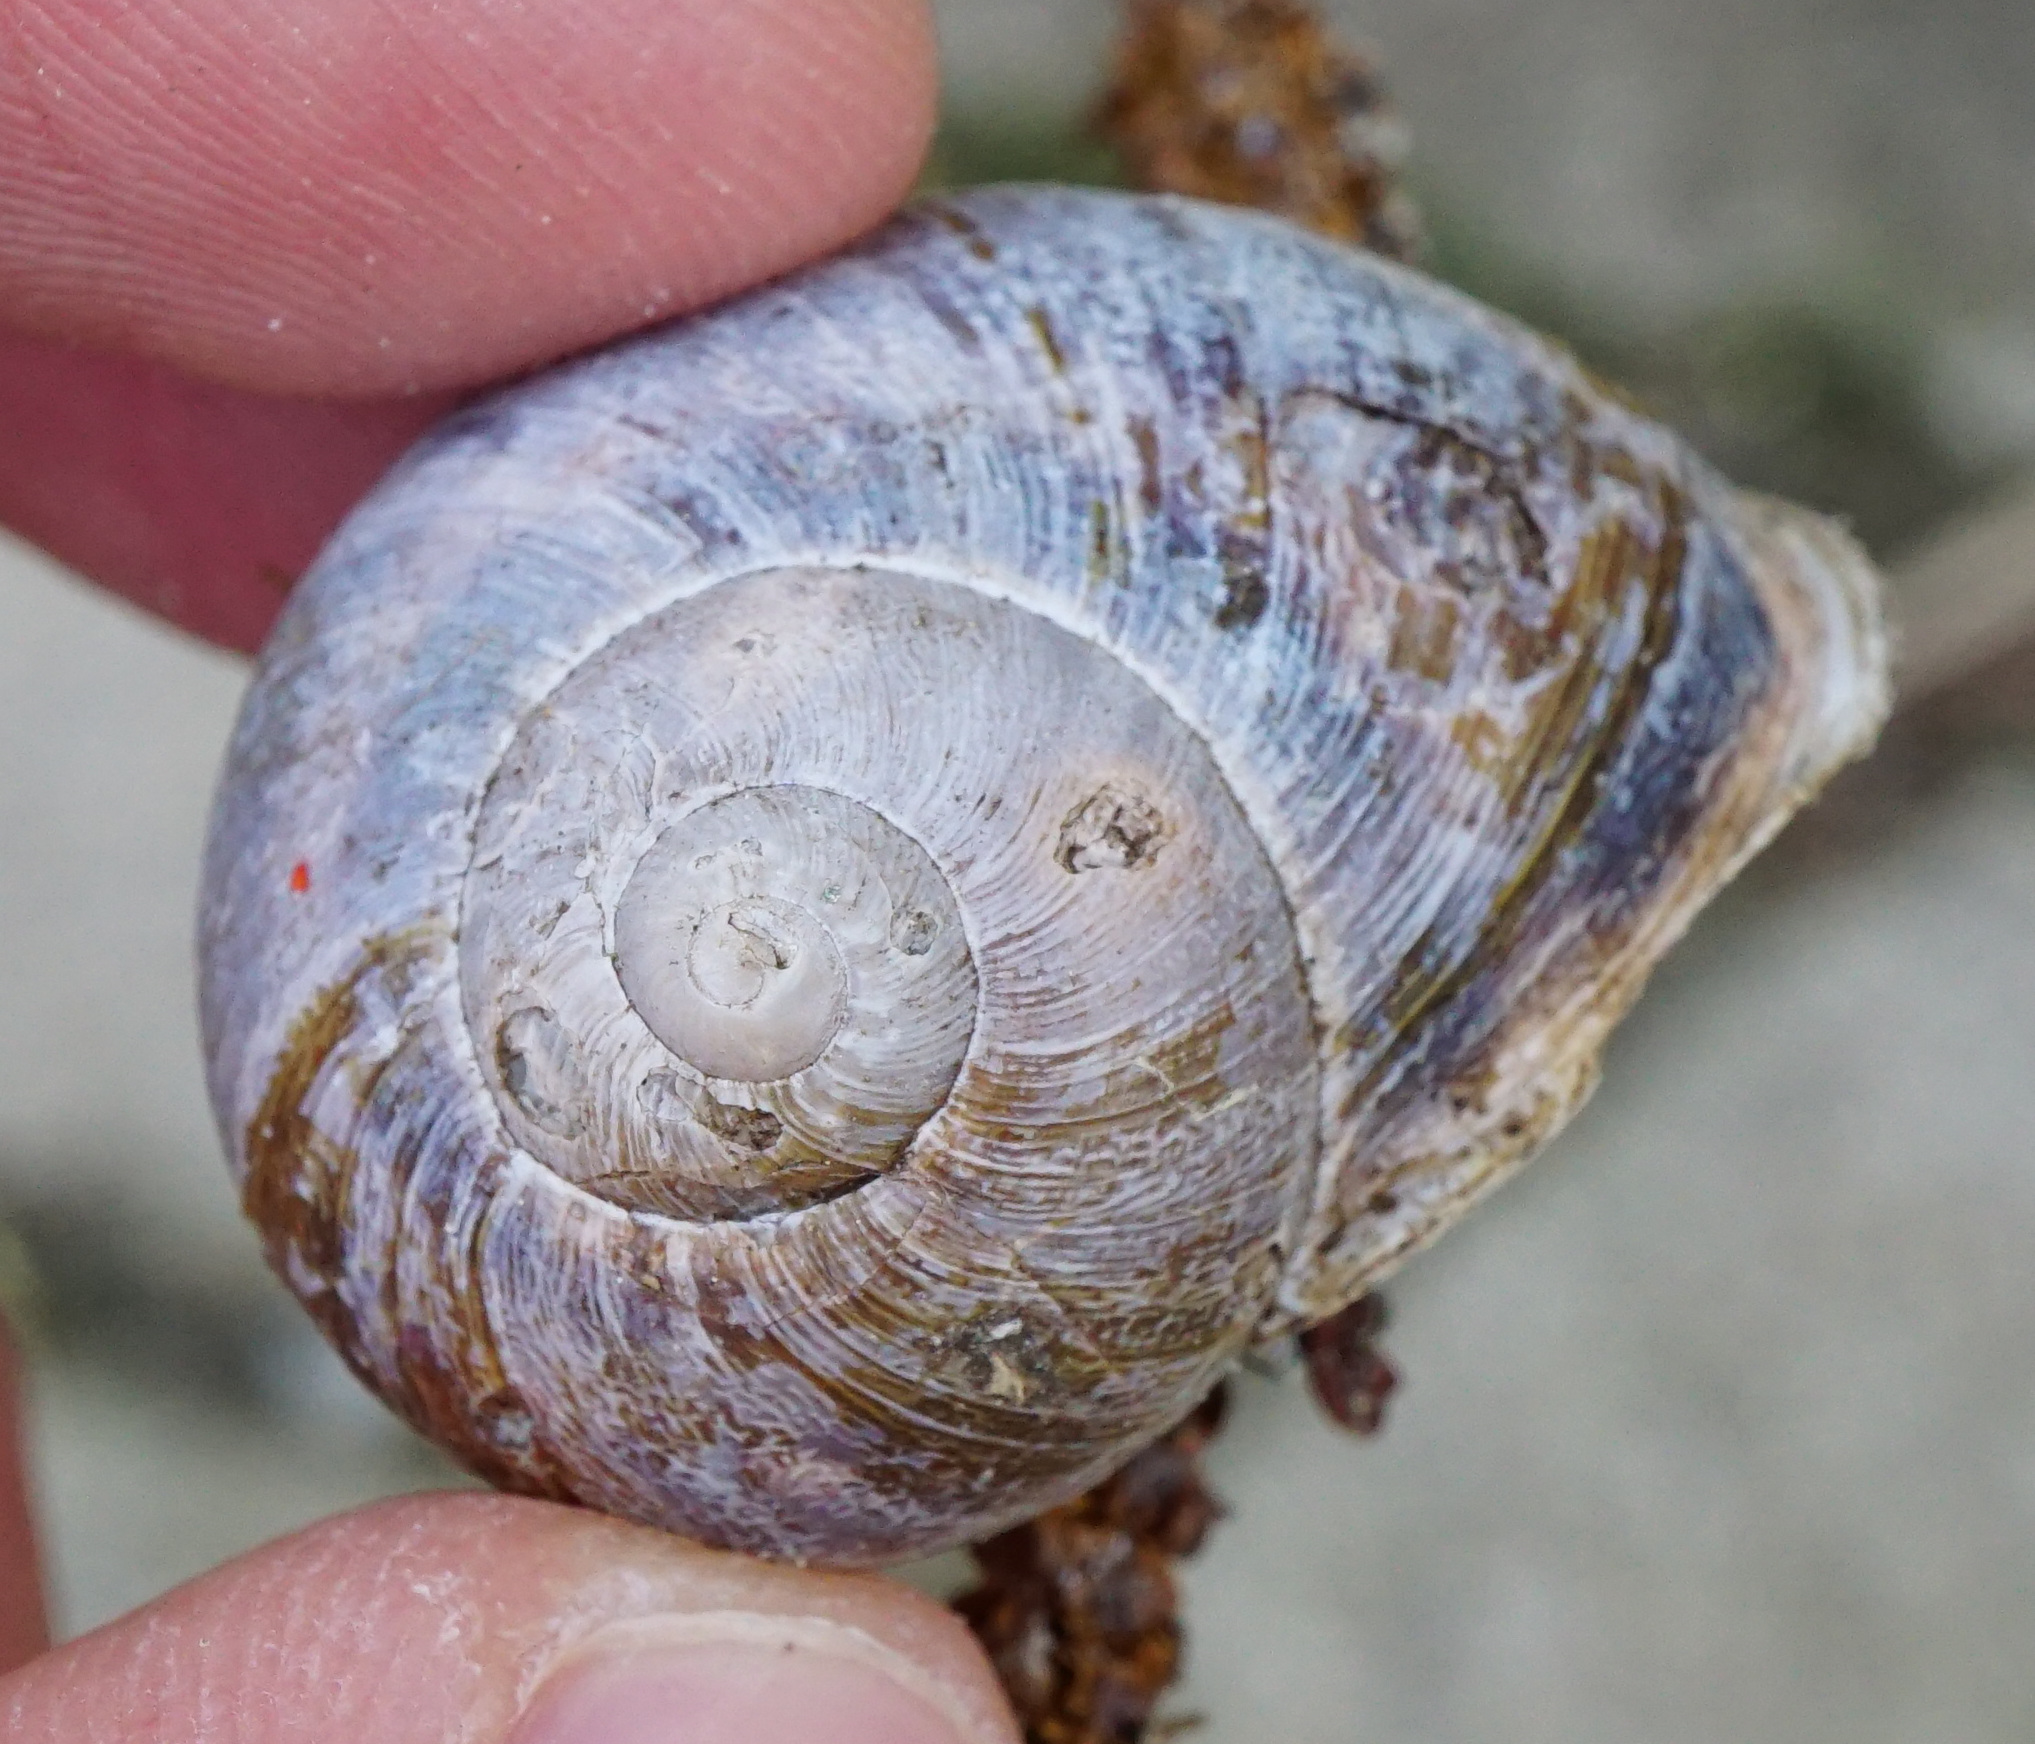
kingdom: Animalia
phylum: Mollusca
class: Gastropoda
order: Stylommatophora
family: Helicidae
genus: Cornu
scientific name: Cornu aspersum
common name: Brown garden snail
